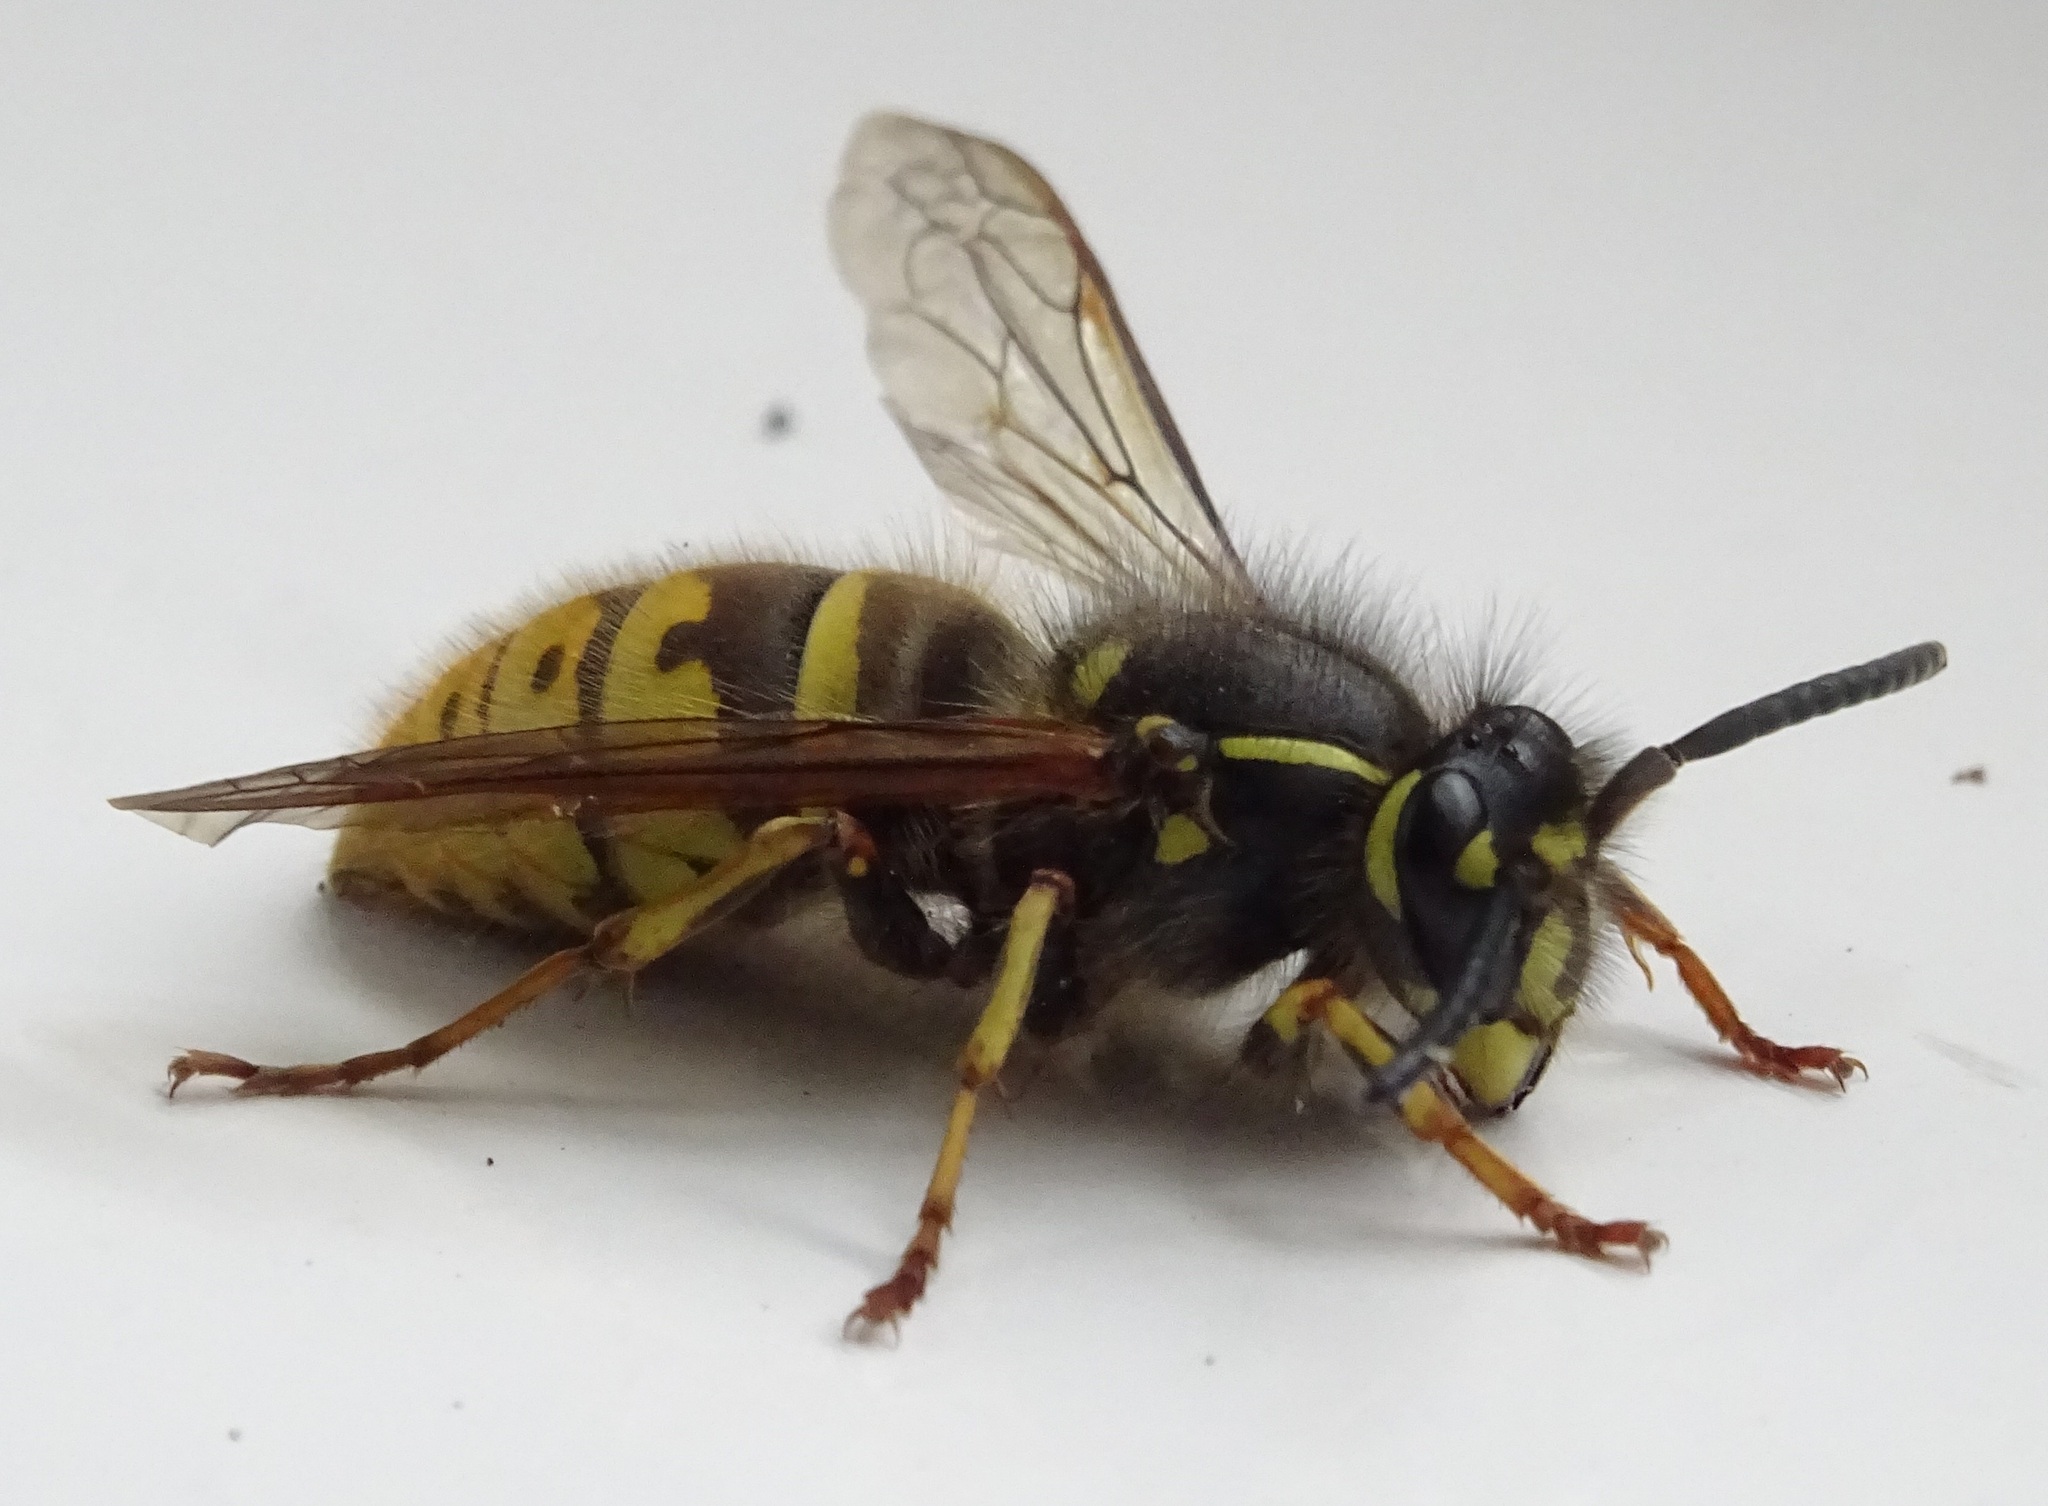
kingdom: Animalia
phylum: Arthropoda
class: Insecta
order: Hymenoptera
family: Vespidae
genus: Vespula
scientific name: Vespula vulgaris
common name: Common wasp
